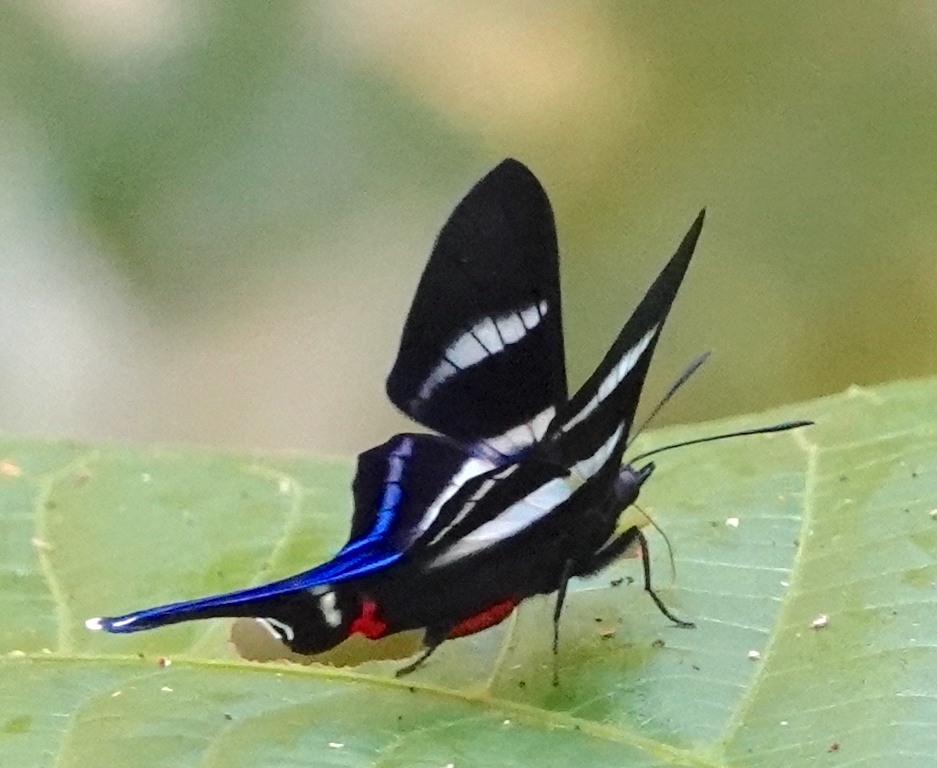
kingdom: Animalia
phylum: Arthropoda
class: Insecta
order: Lepidoptera
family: Riodinidae
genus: Rhetus
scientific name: Rhetus arcius
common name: Long-tailed metalmark
